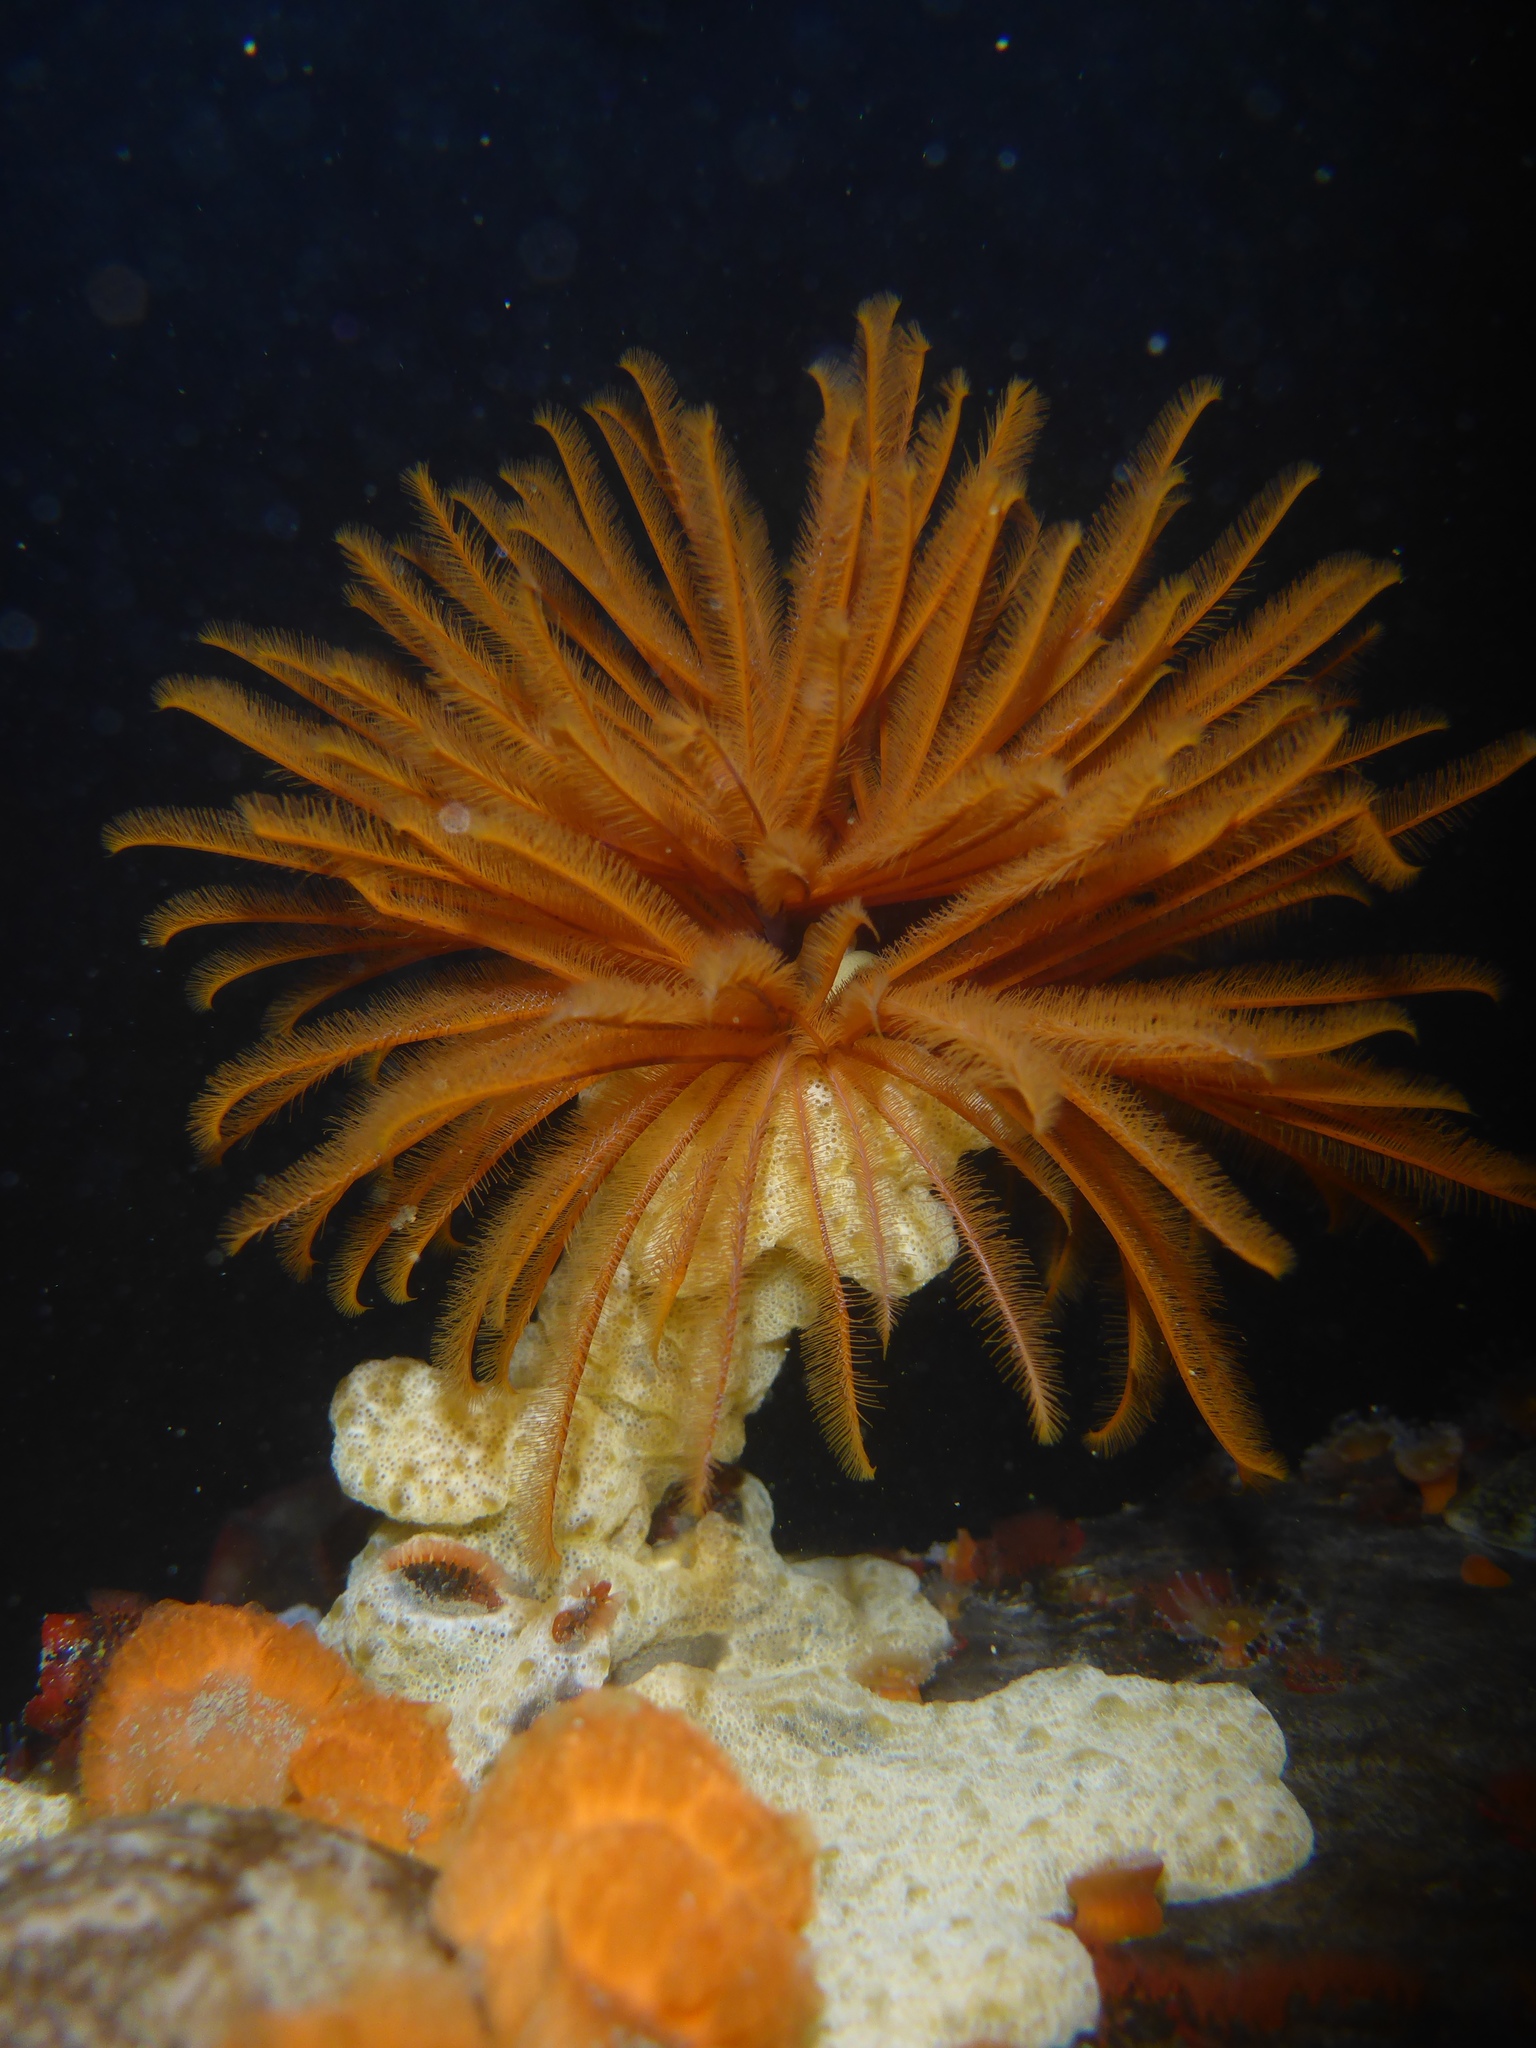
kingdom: Animalia
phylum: Annelida
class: Polychaeta
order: Sabellida
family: Sabellidae
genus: Eudistylia
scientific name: Eudistylia polymorpha
